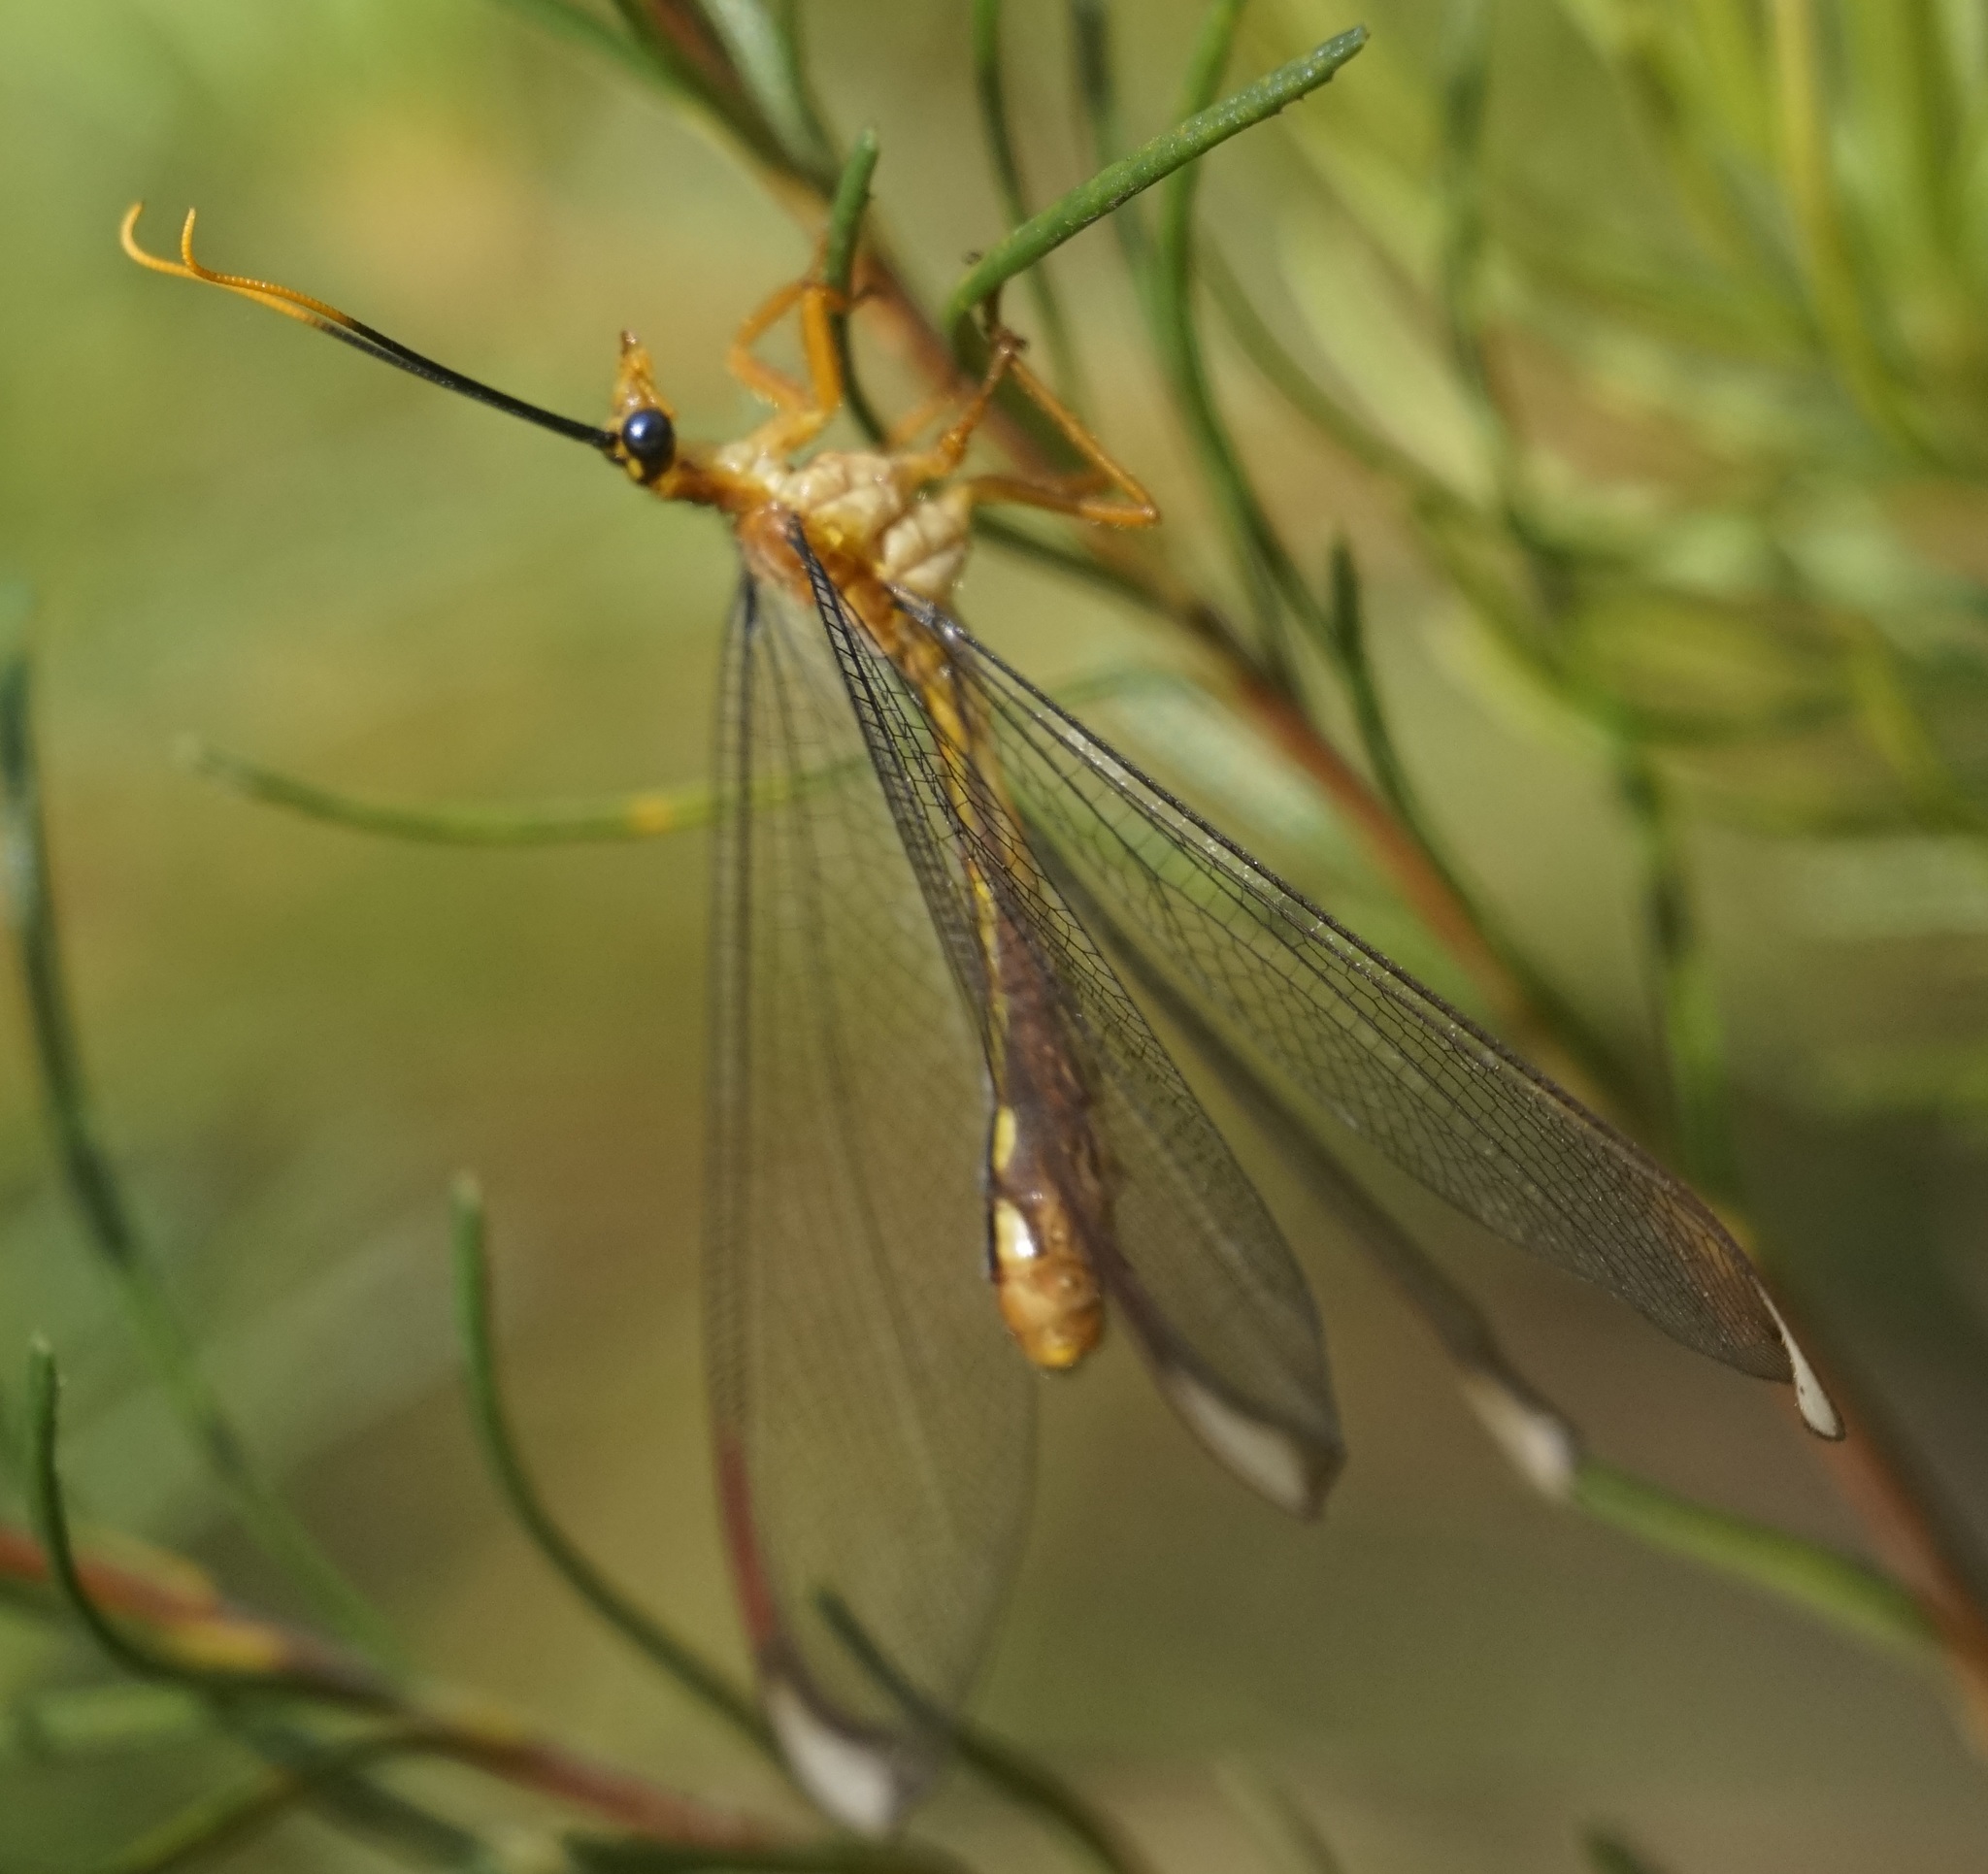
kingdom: Animalia
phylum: Arthropoda
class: Insecta
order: Neuroptera
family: Nymphidae
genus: Nymphes
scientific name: Nymphes myrmeleonoides
